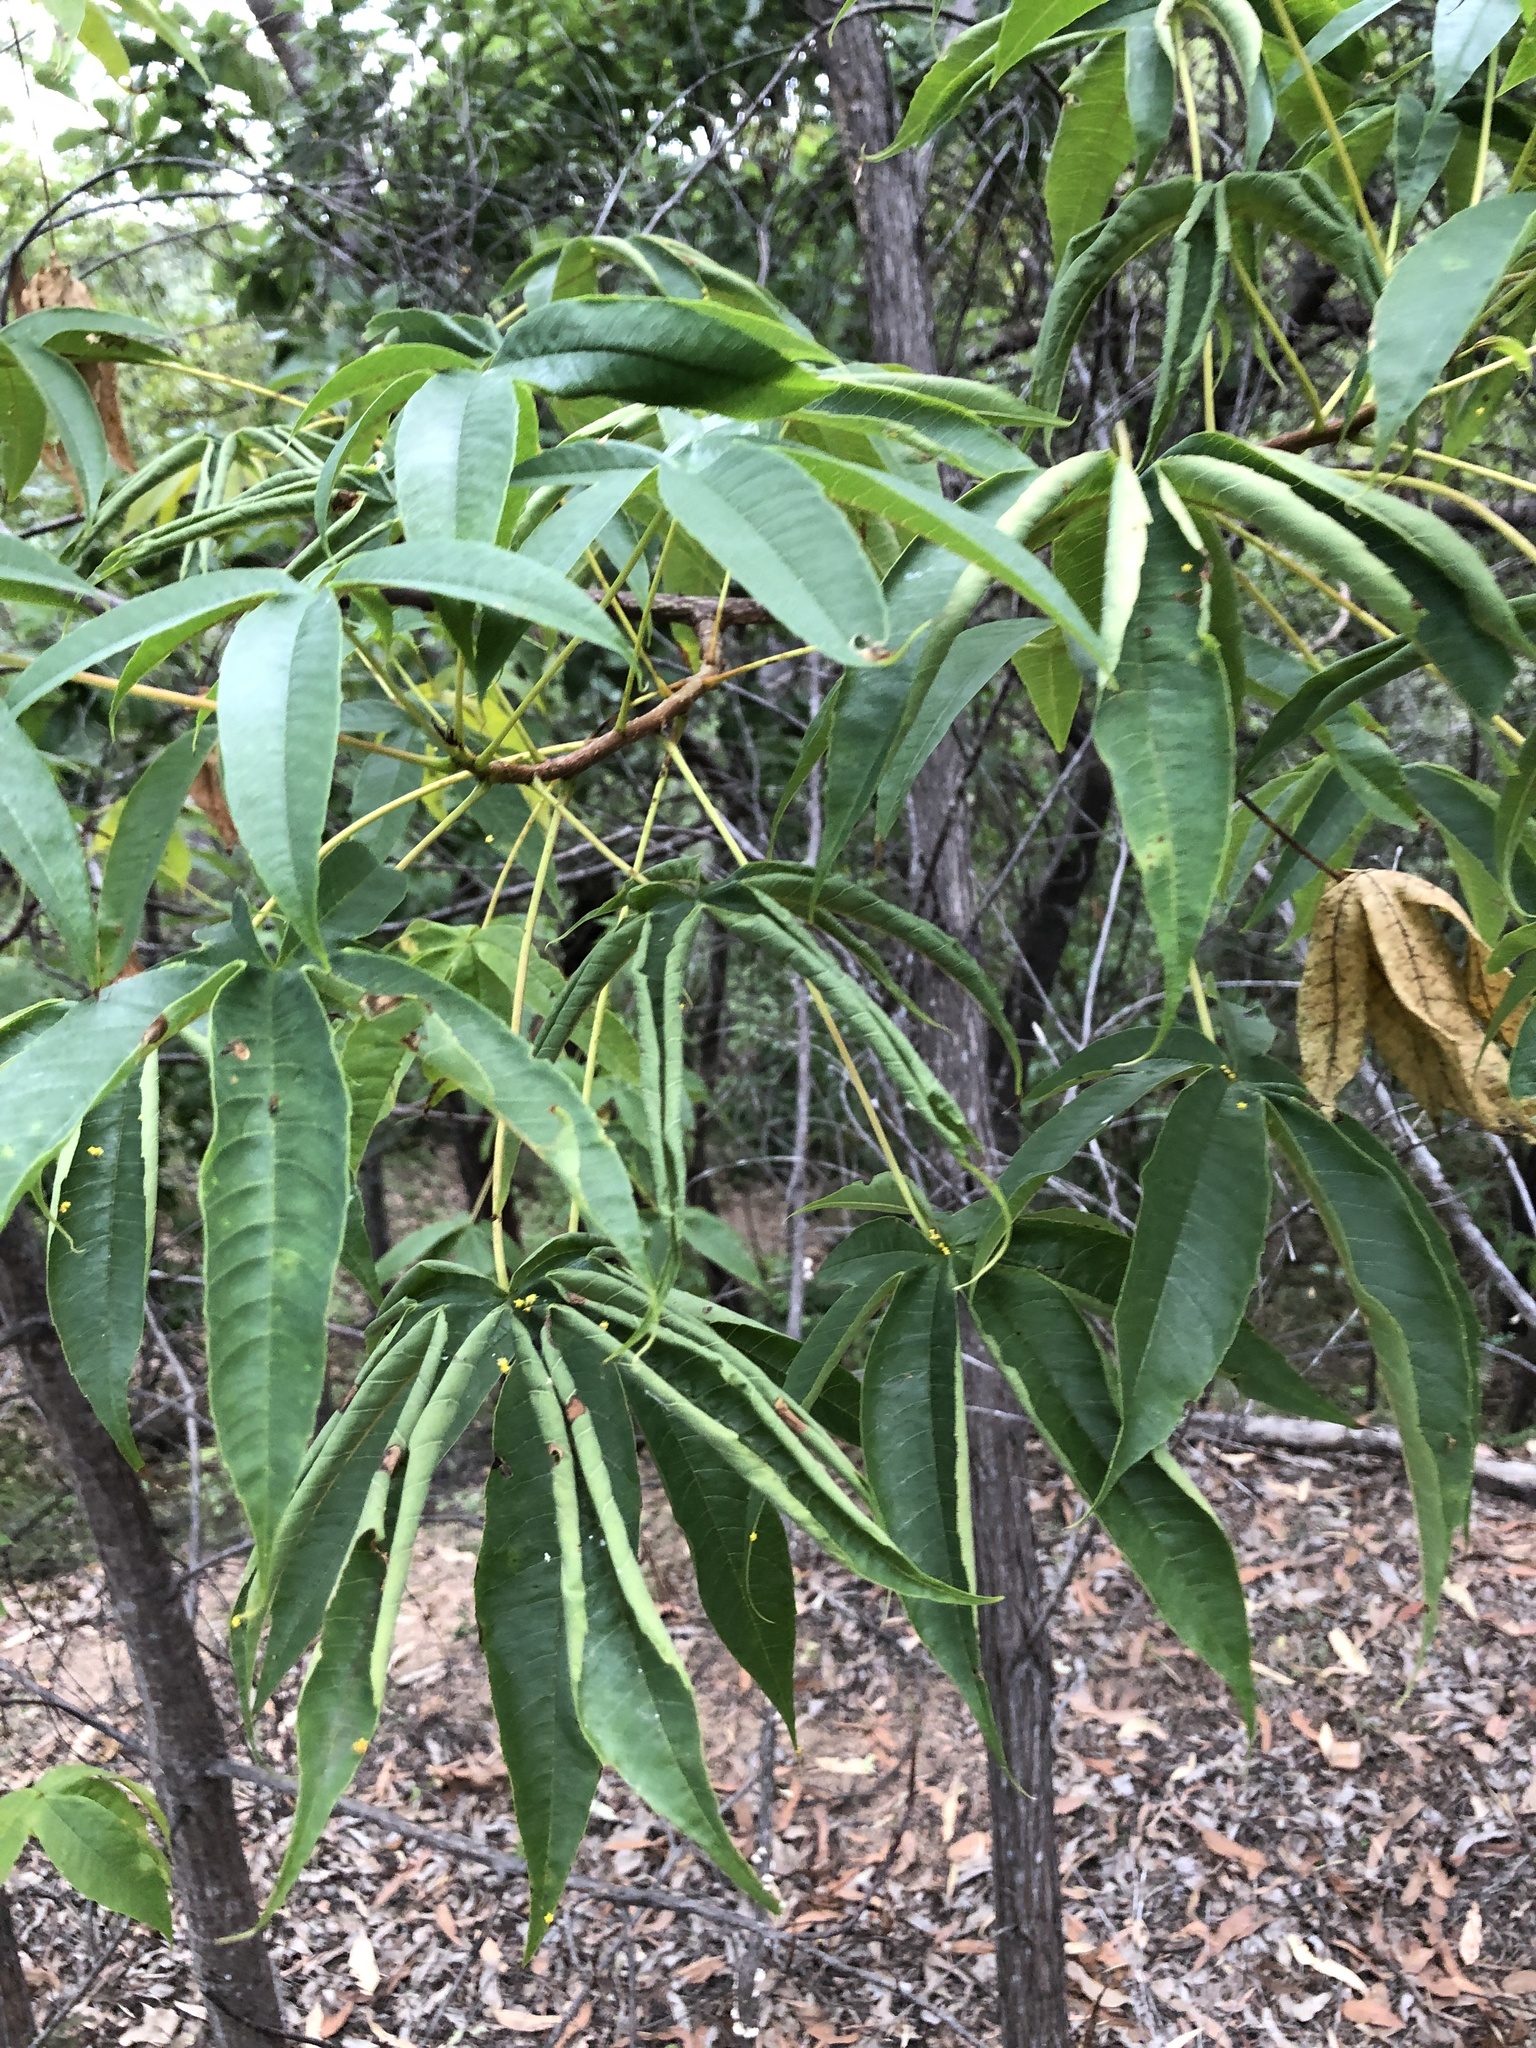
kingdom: Plantae
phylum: Tracheophyta
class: Magnoliopsida
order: Malvales
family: Cochlospermaceae
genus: Cochlospermum
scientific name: Cochlospermum gillivraei
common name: Cottontree
